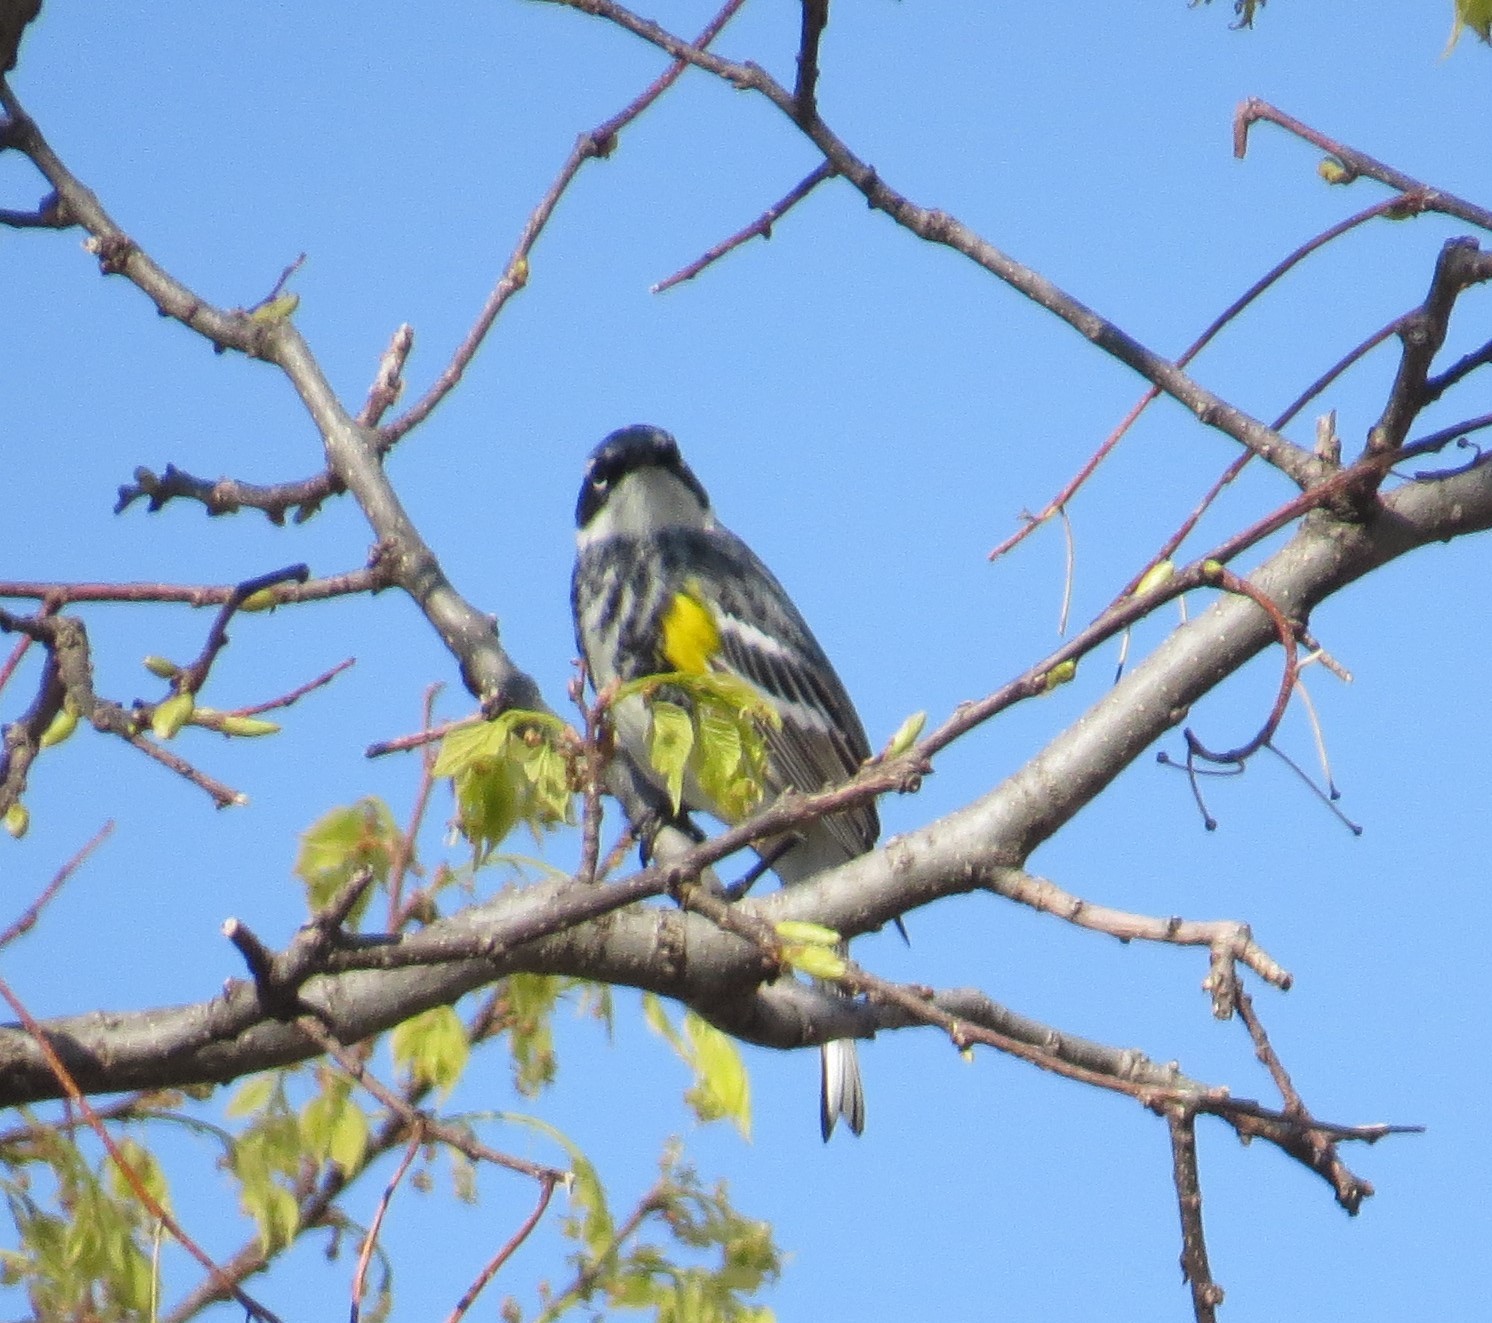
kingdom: Animalia
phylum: Chordata
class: Aves
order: Passeriformes
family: Parulidae
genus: Setophaga
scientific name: Setophaga coronata
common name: Myrtle warbler
